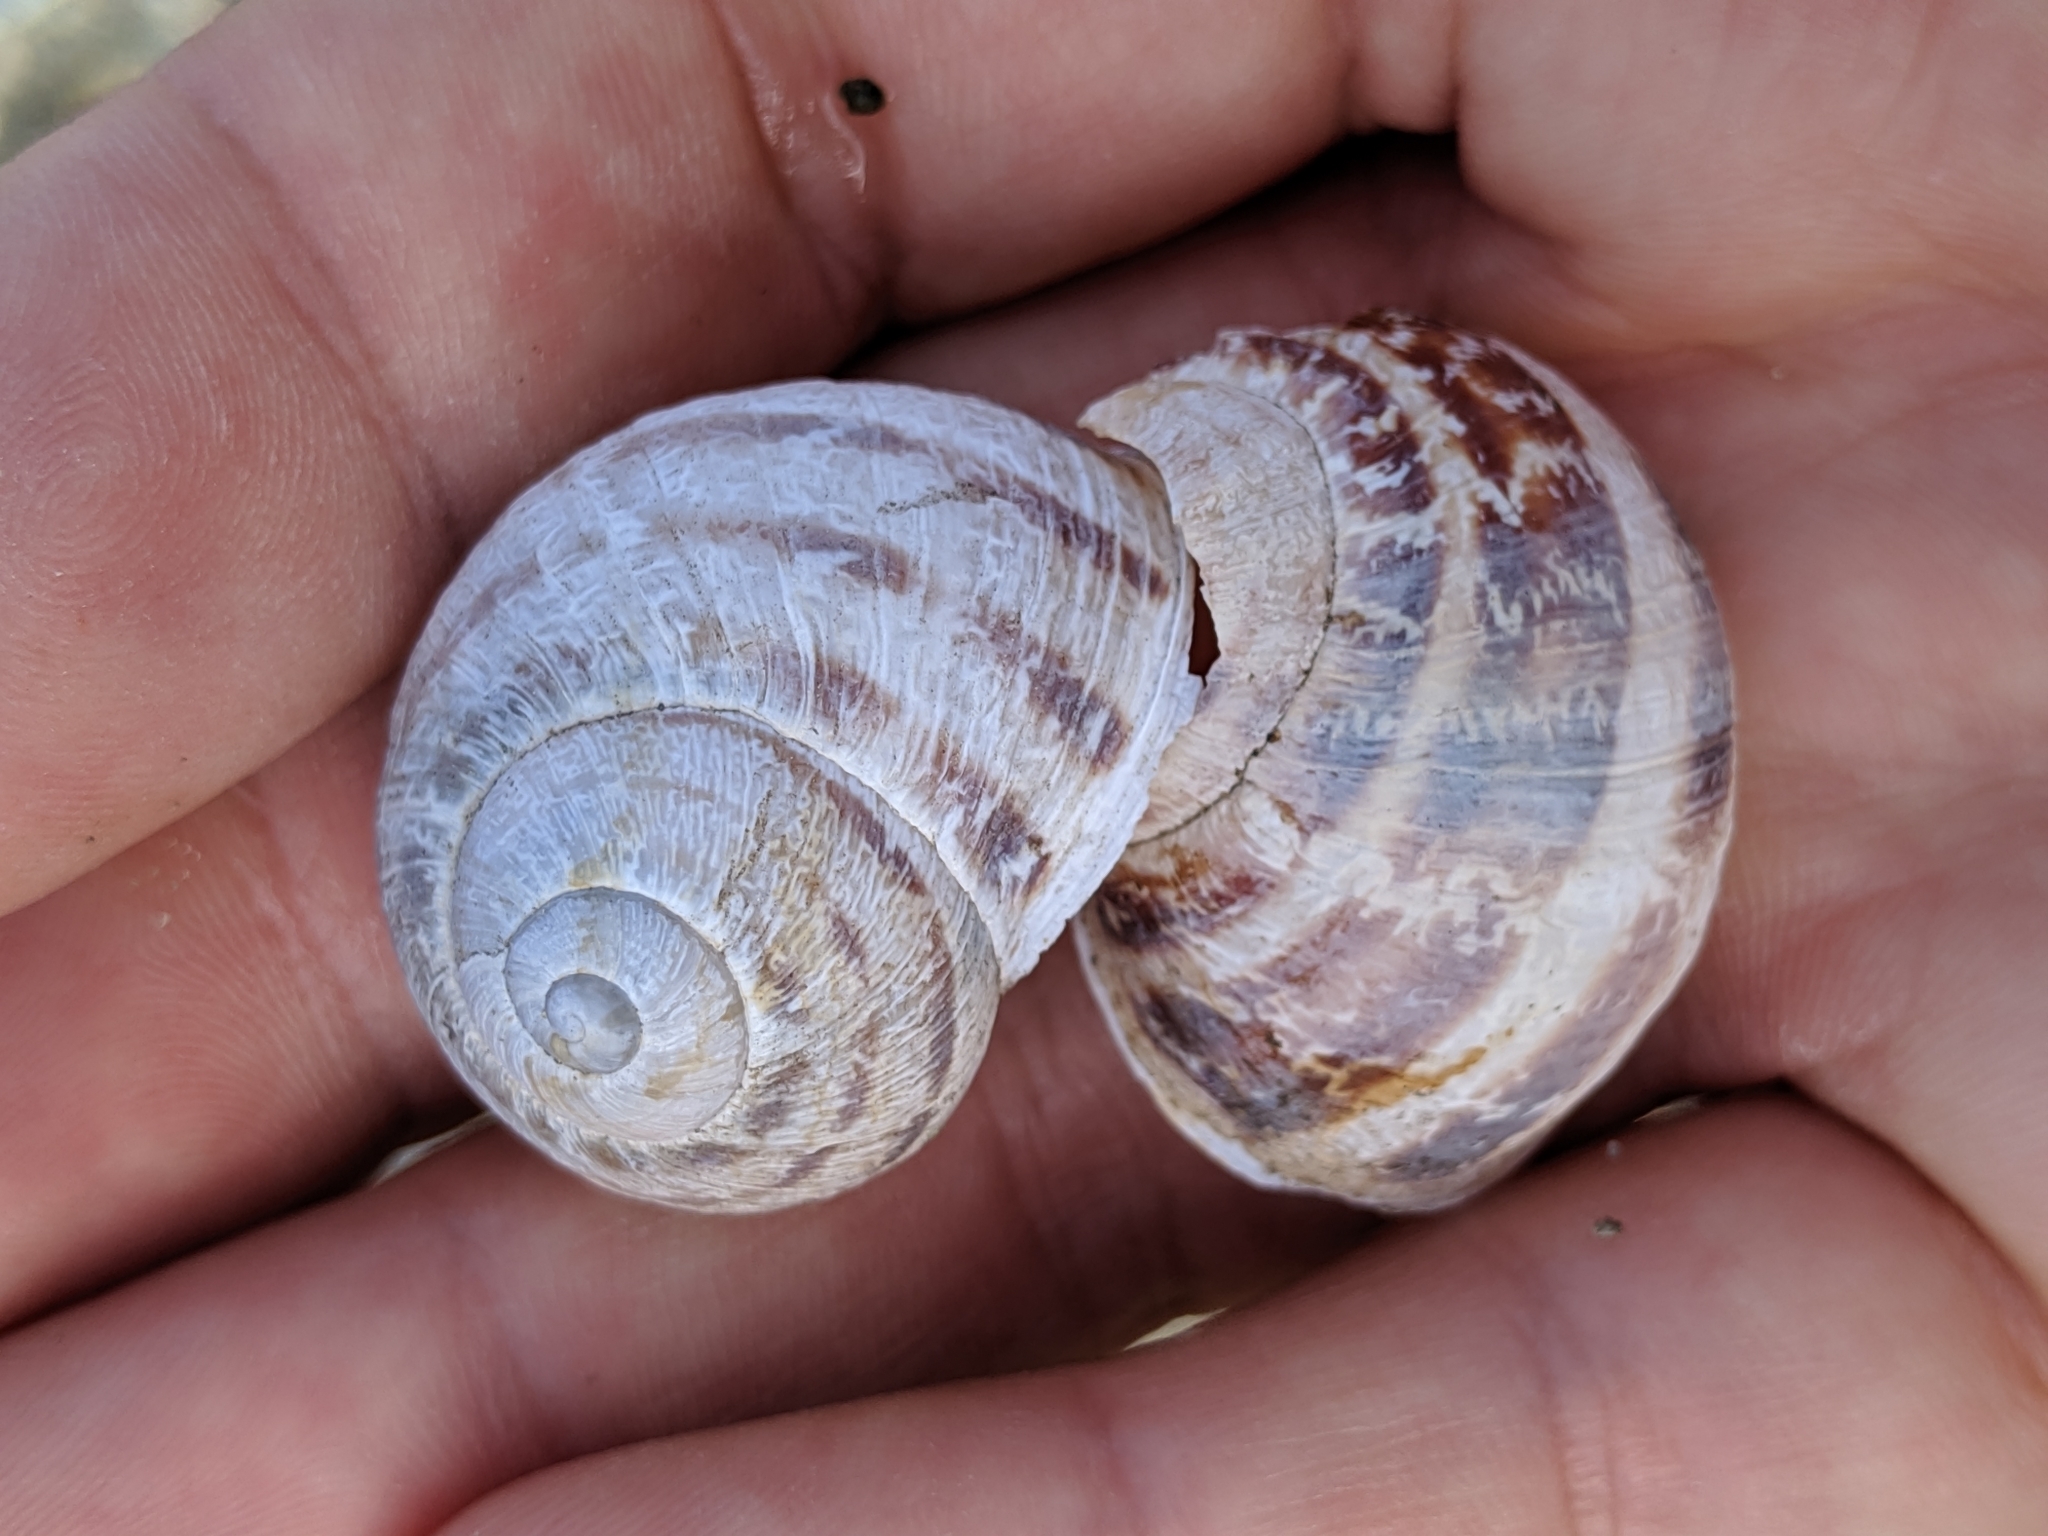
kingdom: Animalia
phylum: Mollusca
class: Gastropoda
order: Stylommatophora
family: Helicidae
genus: Cornu
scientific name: Cornu aspersum
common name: Brown garden snail
